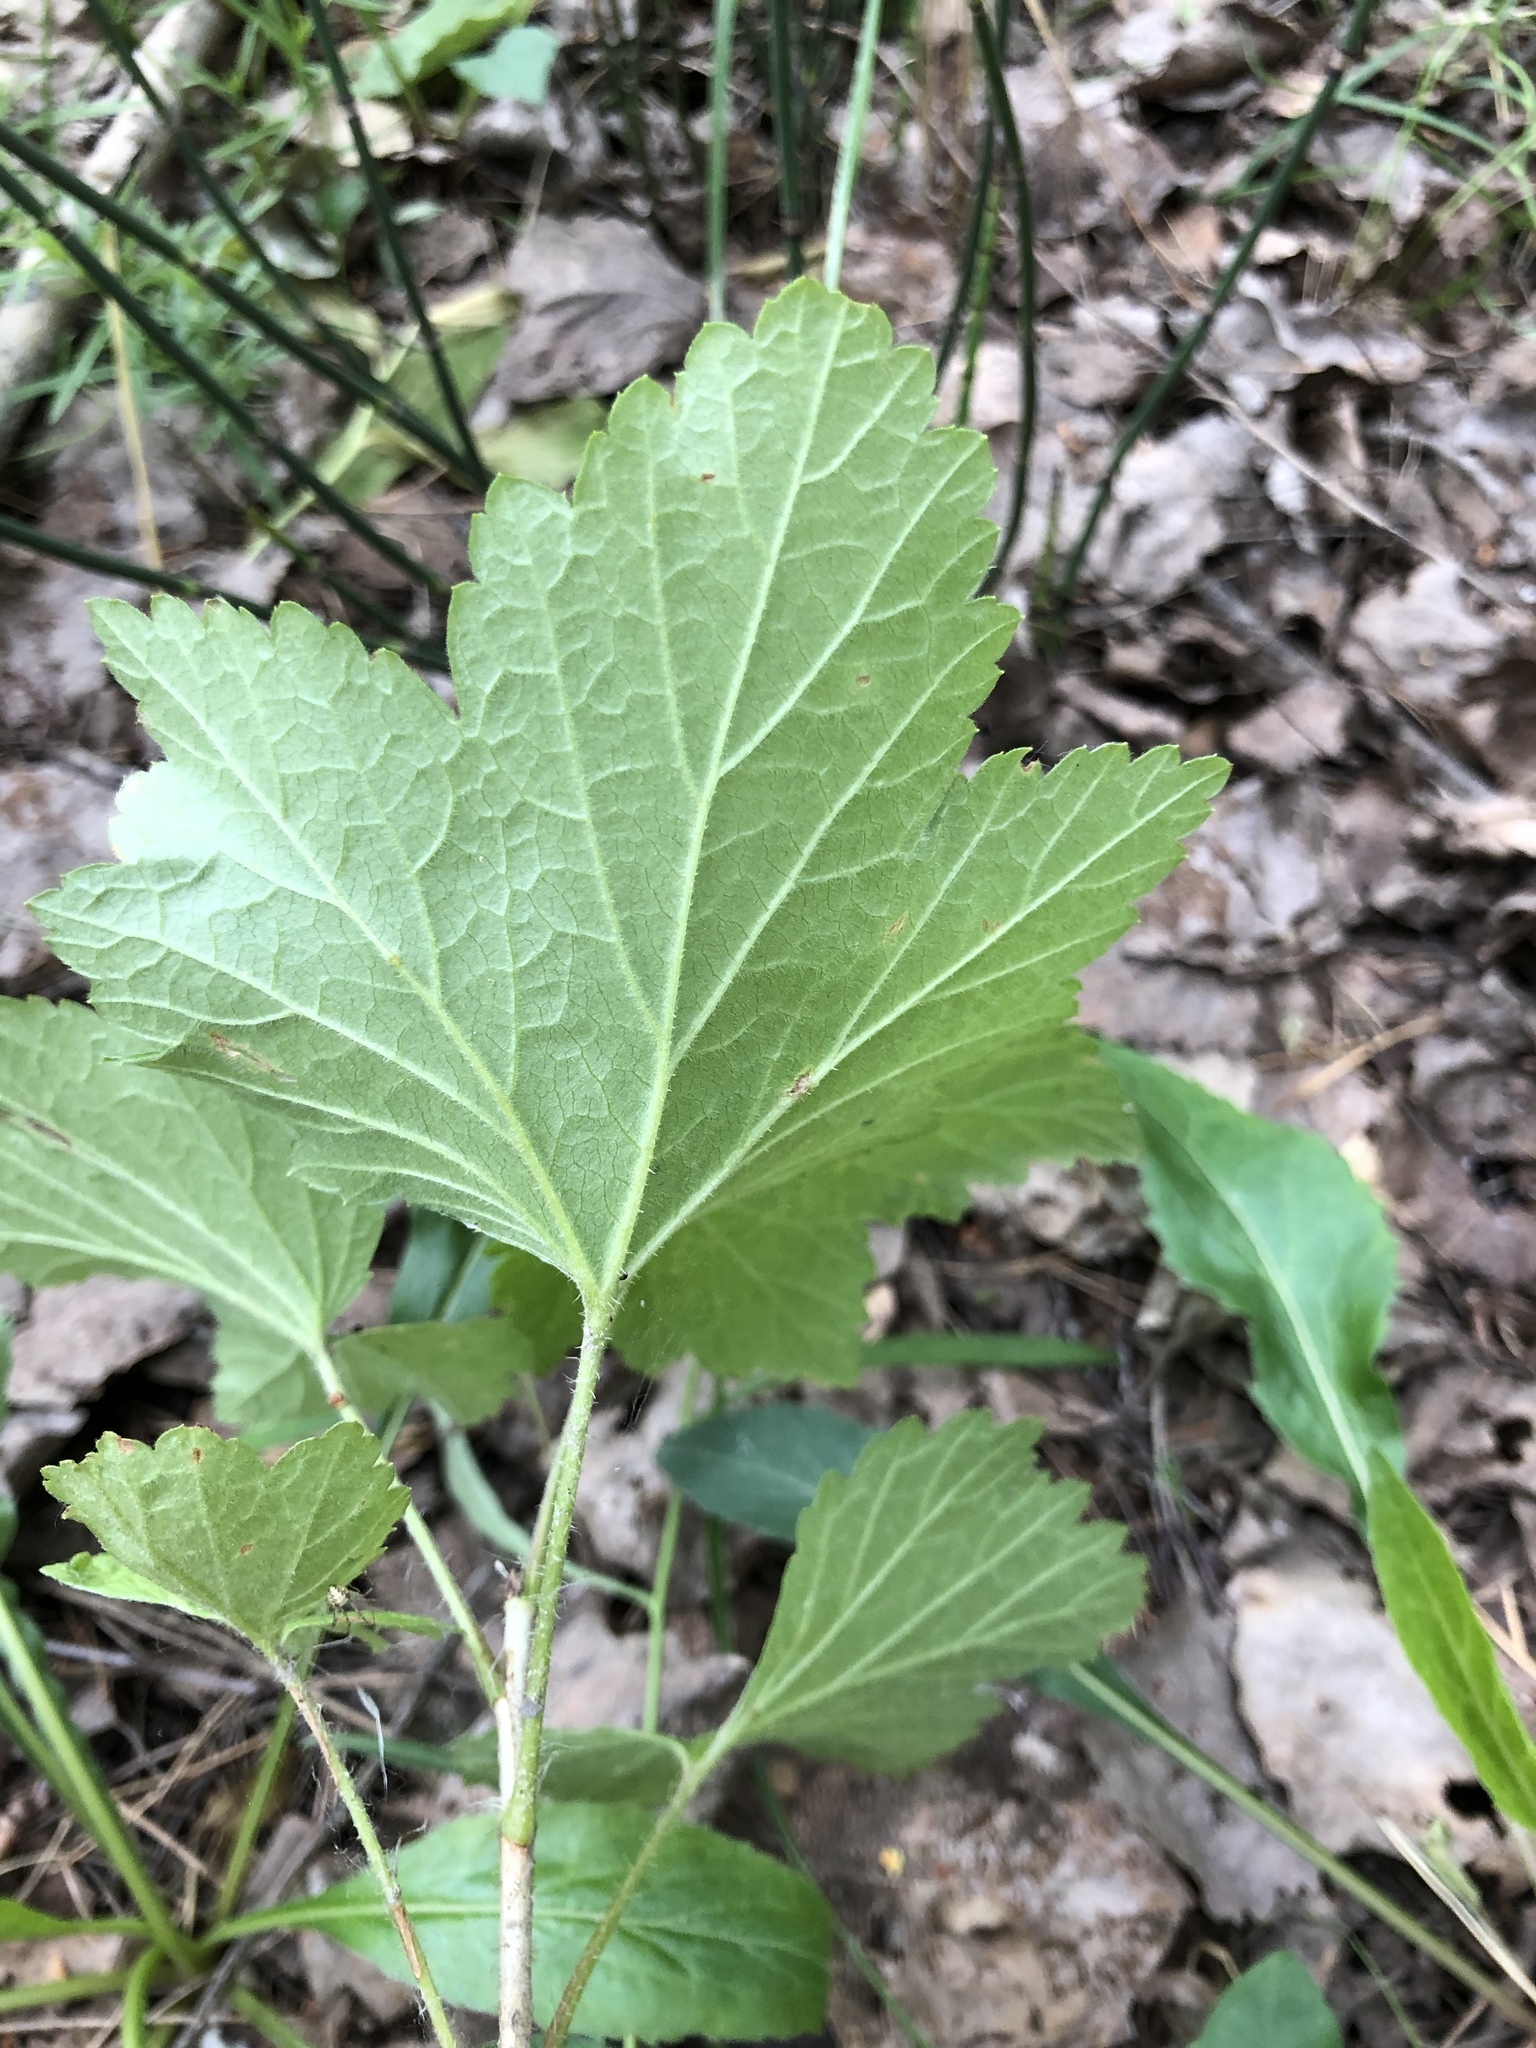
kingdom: Plantae
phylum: Tracheophyta
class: Magnoliopsida
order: Saxifragales
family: Grossulariaceae
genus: Ribes
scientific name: Ribes rubrum
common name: Red currant
